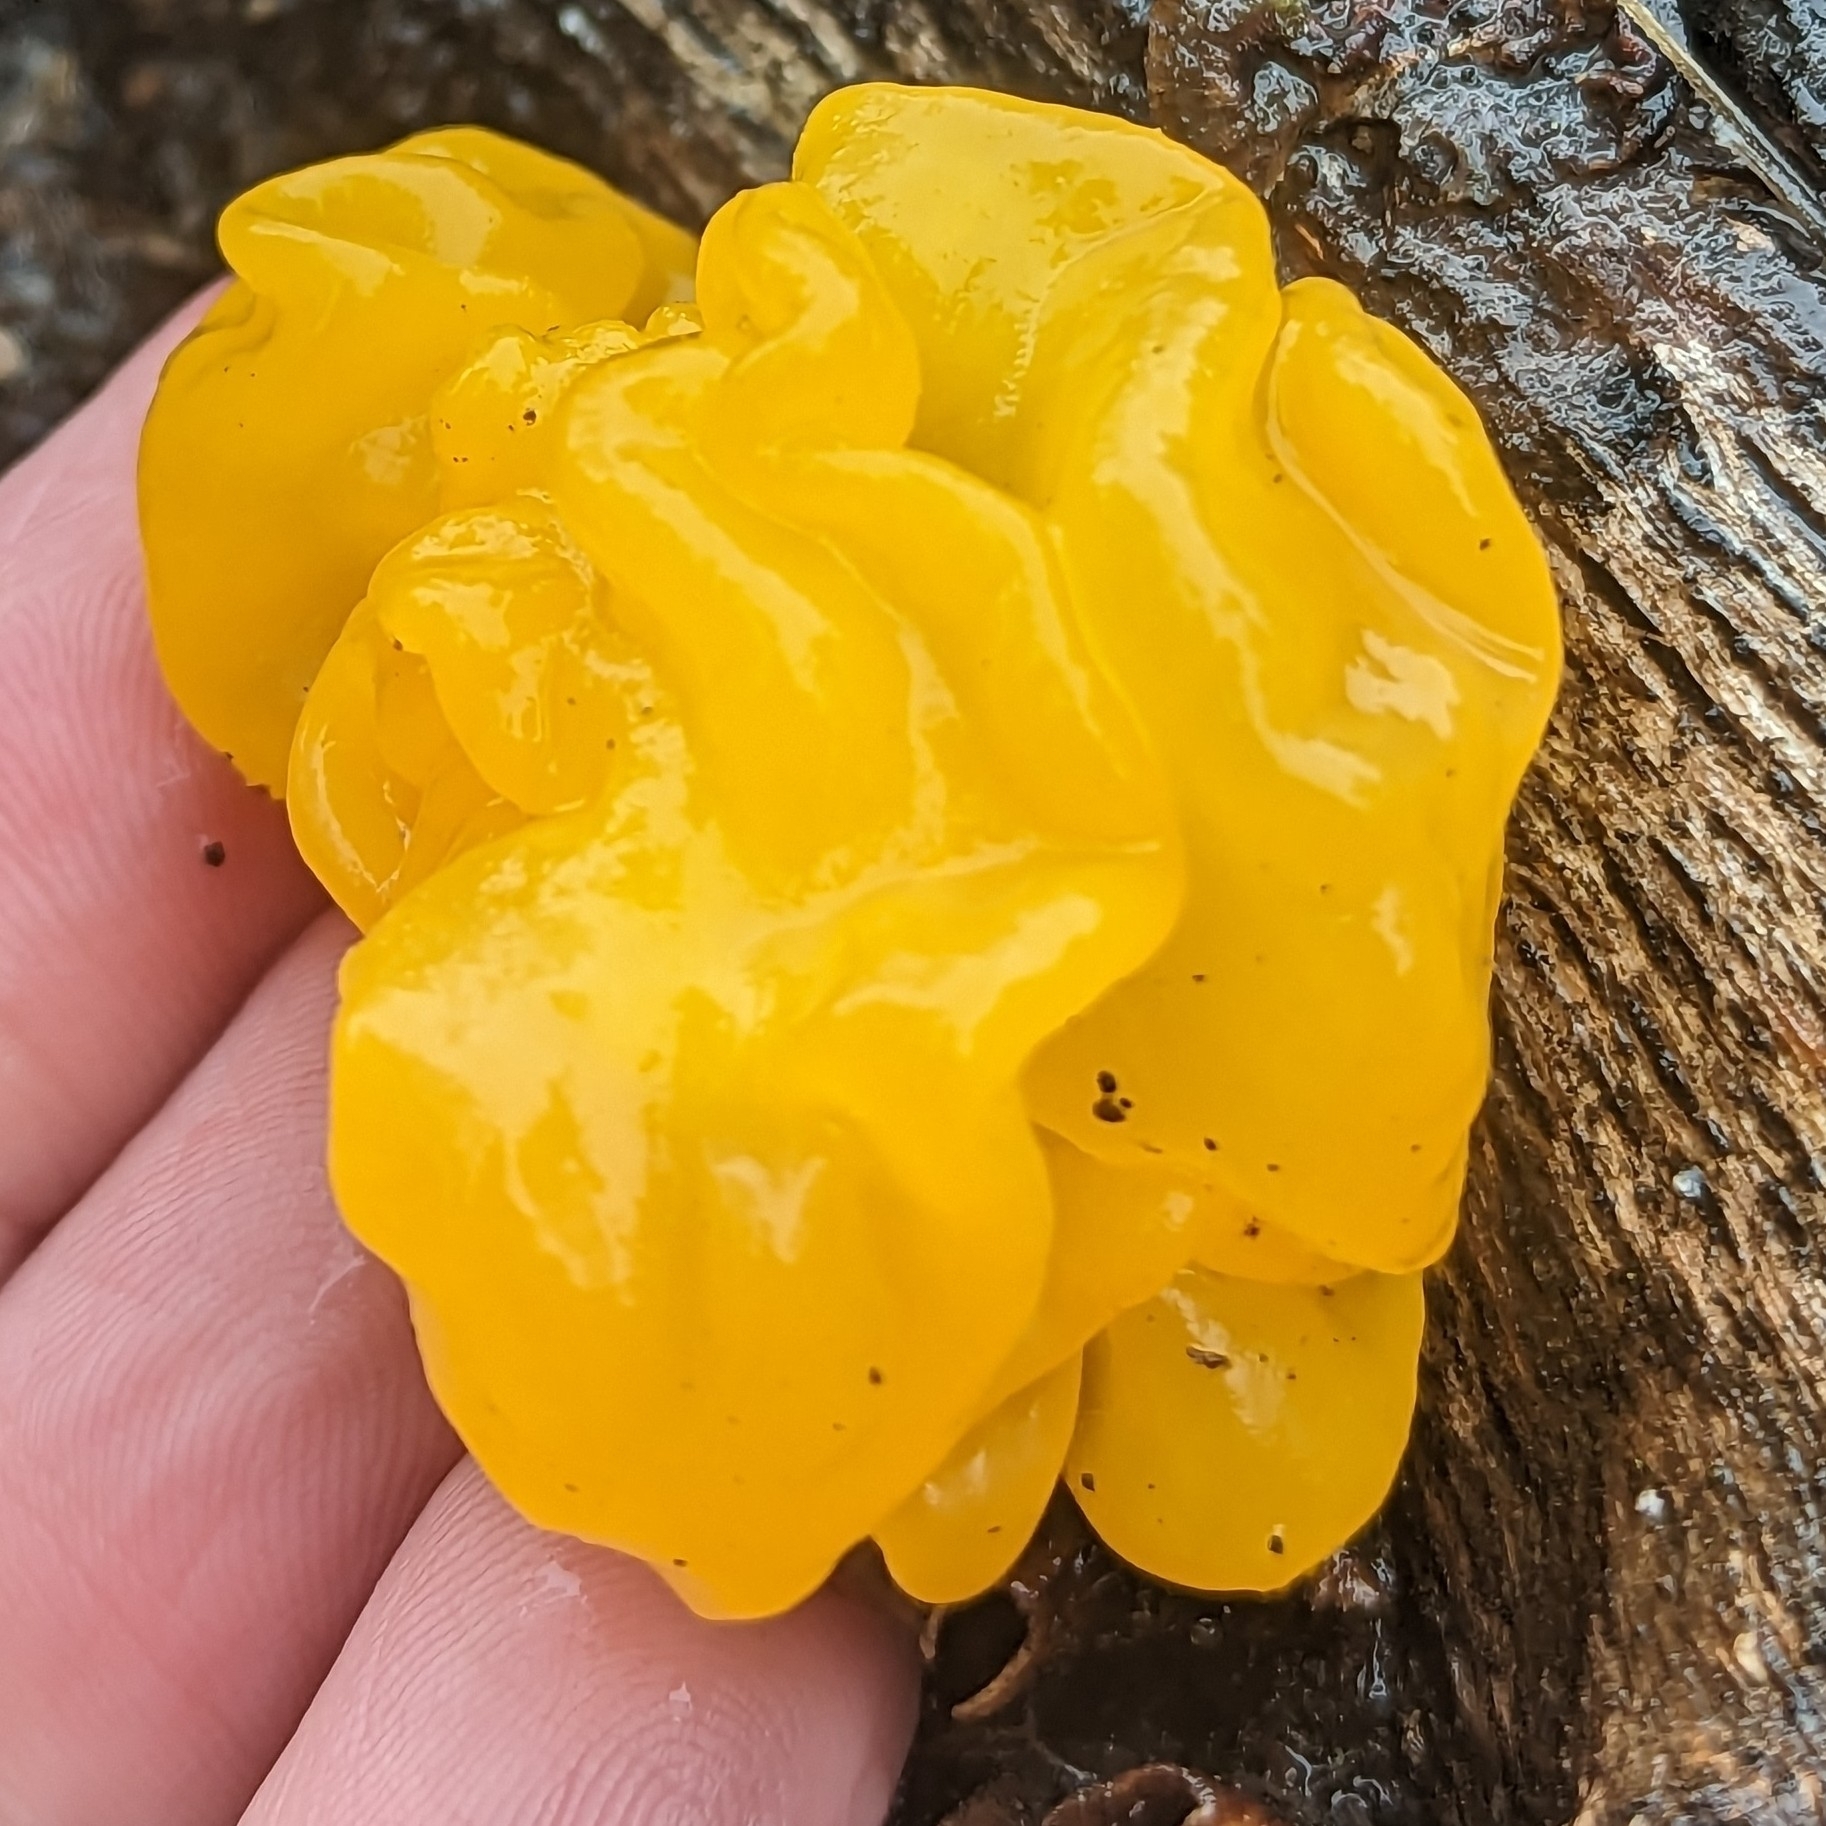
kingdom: Fungi
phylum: Basidiomycota
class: Tremellomycetes
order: Tremellales
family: Naemateliaceae
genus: Naematelia
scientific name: Naematelia aurantia
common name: Golden ear
